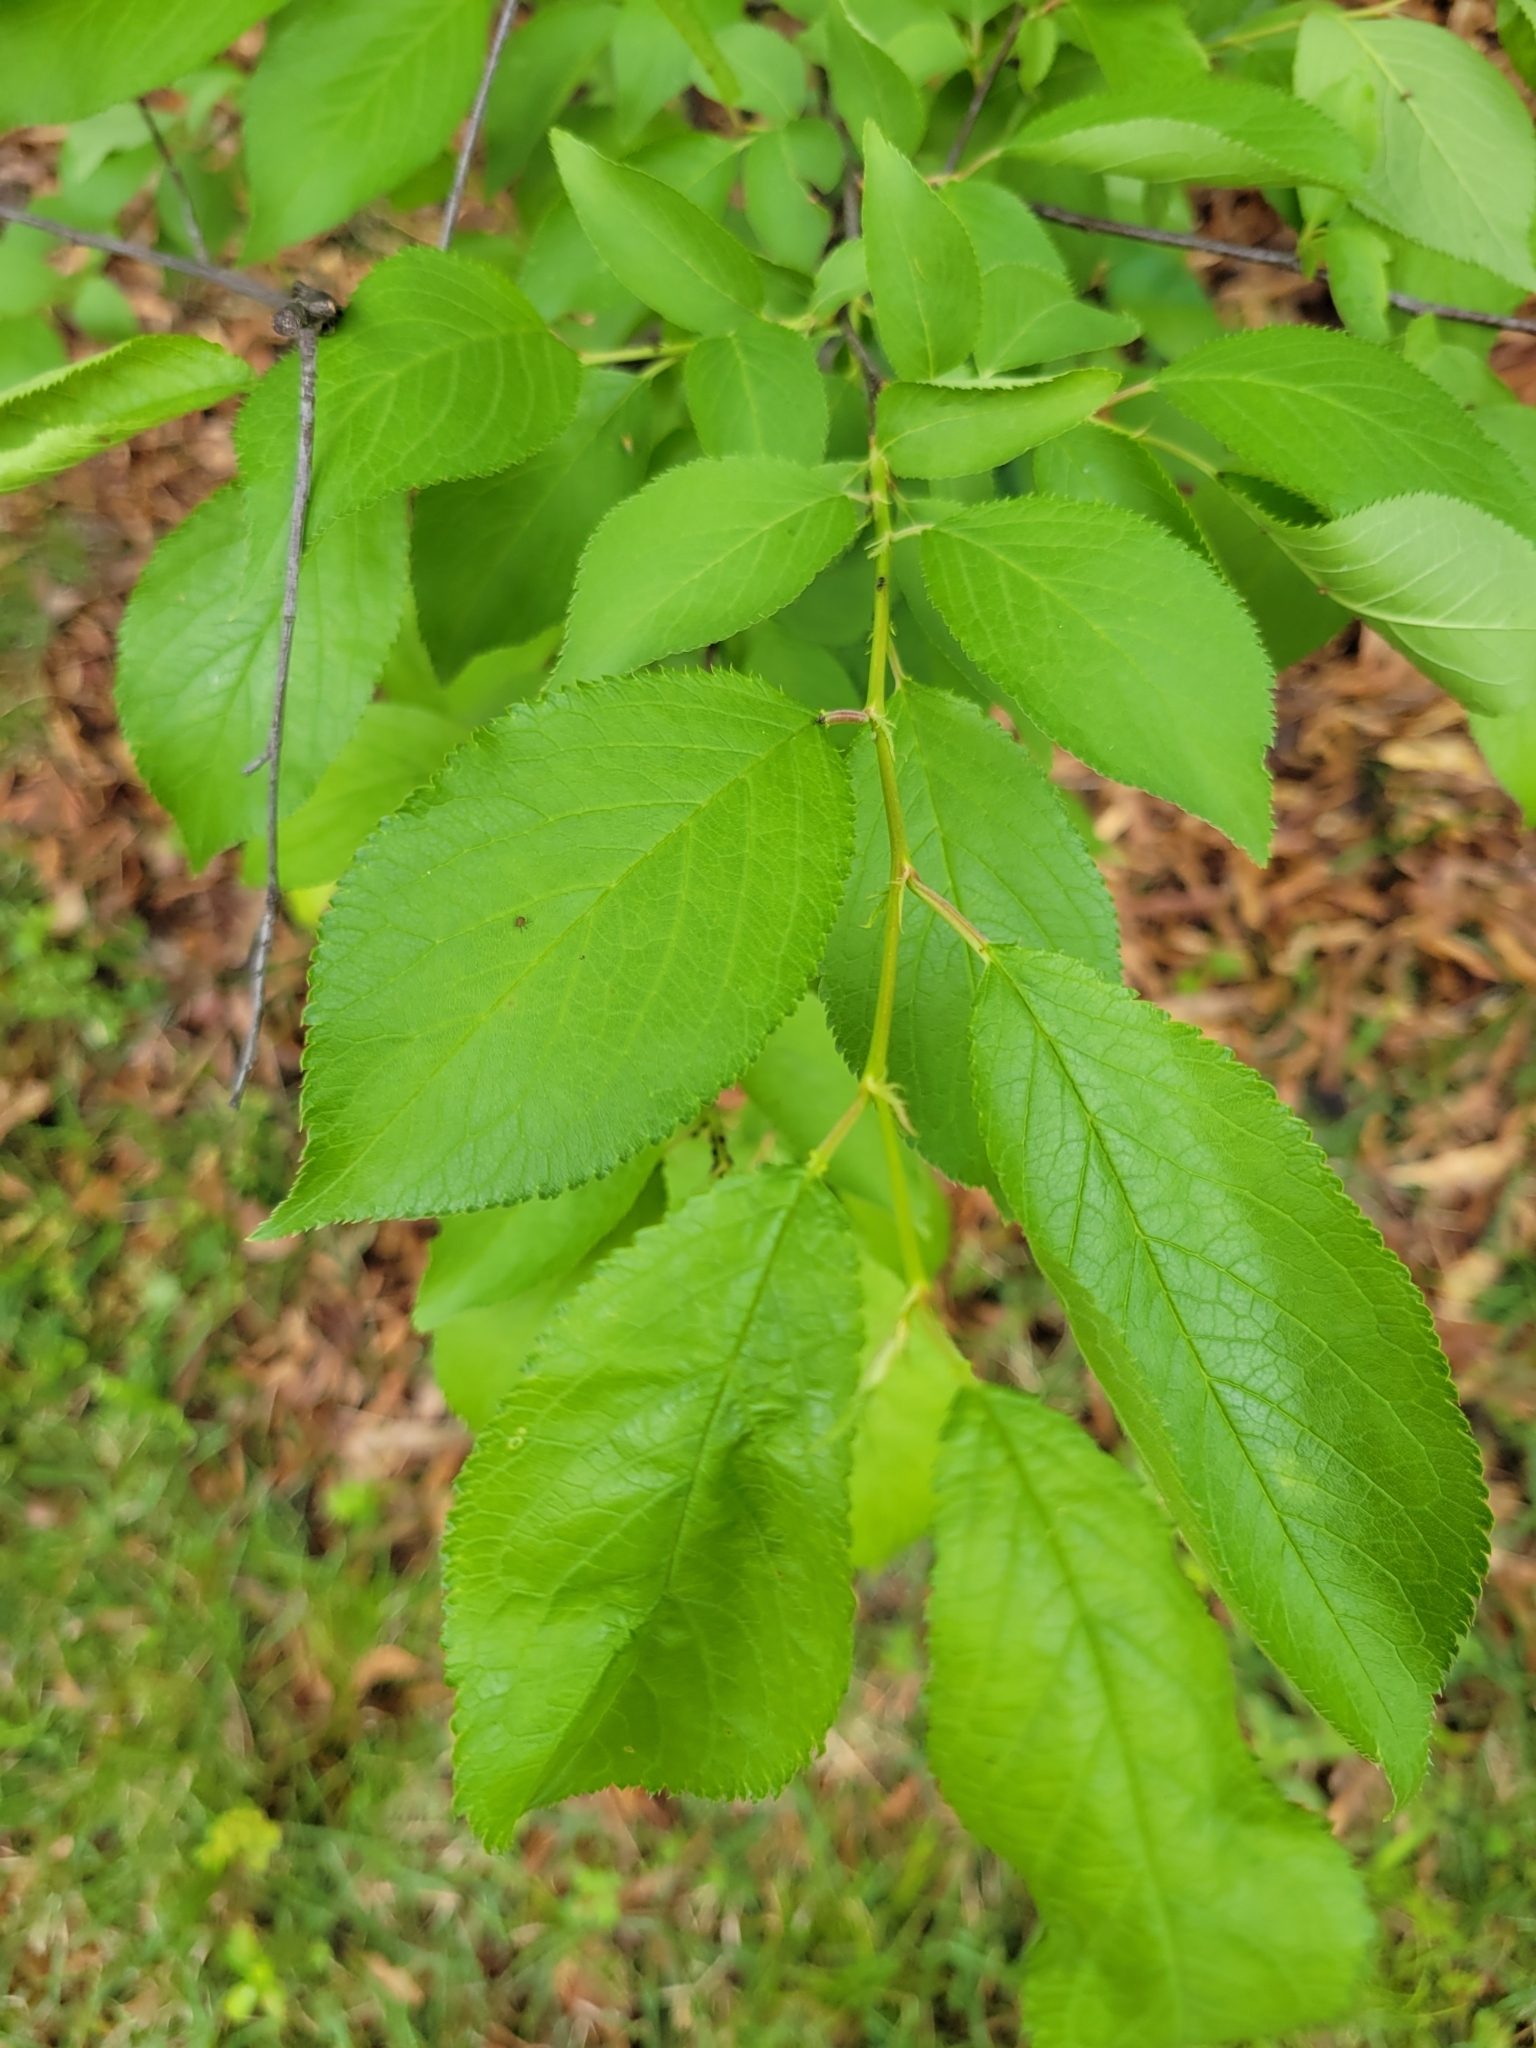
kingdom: Plantae
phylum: Tracheophyta
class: Magnoliopsida
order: Rosales
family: Rosaceae
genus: Prunus
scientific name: Prunus americana
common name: American plum
